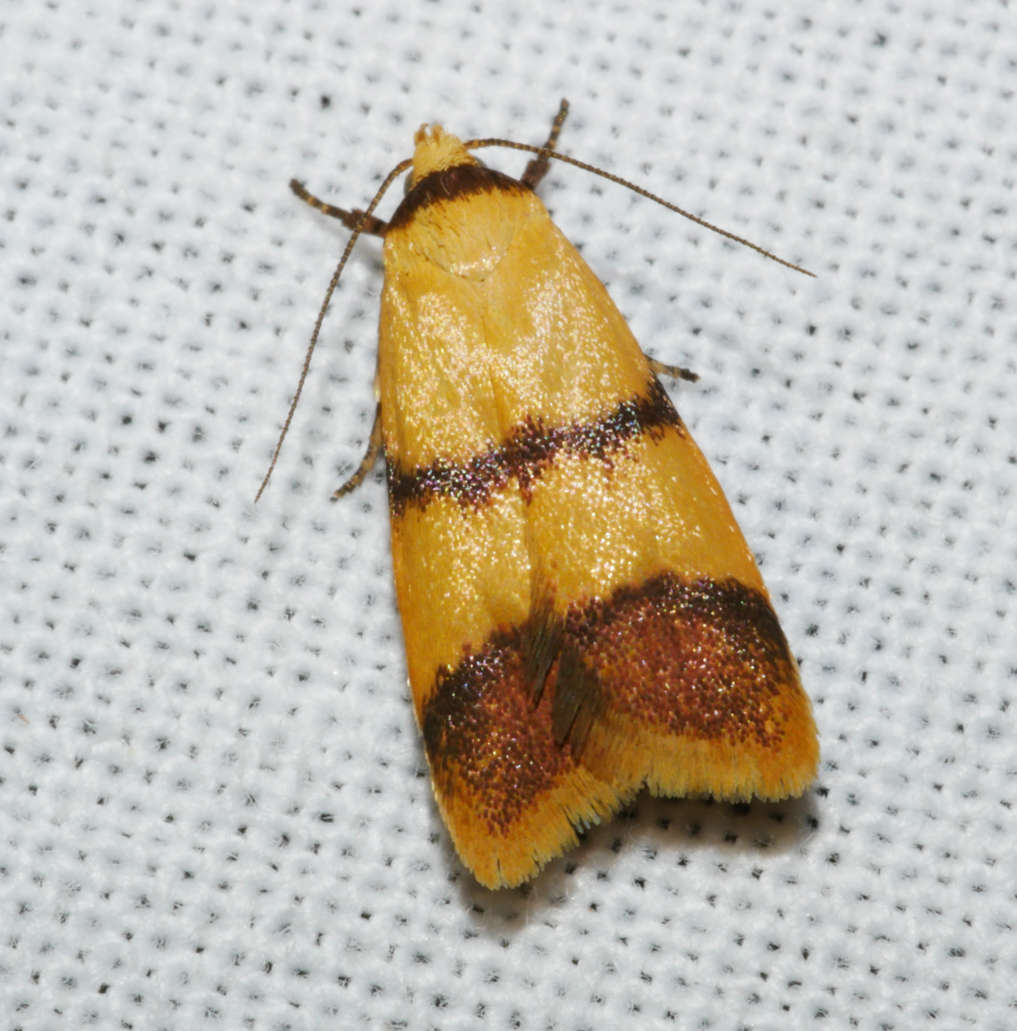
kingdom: Animalia
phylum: Arthropoda
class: Insecta
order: Lepidoptera
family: Oecophoridae
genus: Heteroteucha
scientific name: Heteroteucha translatella
